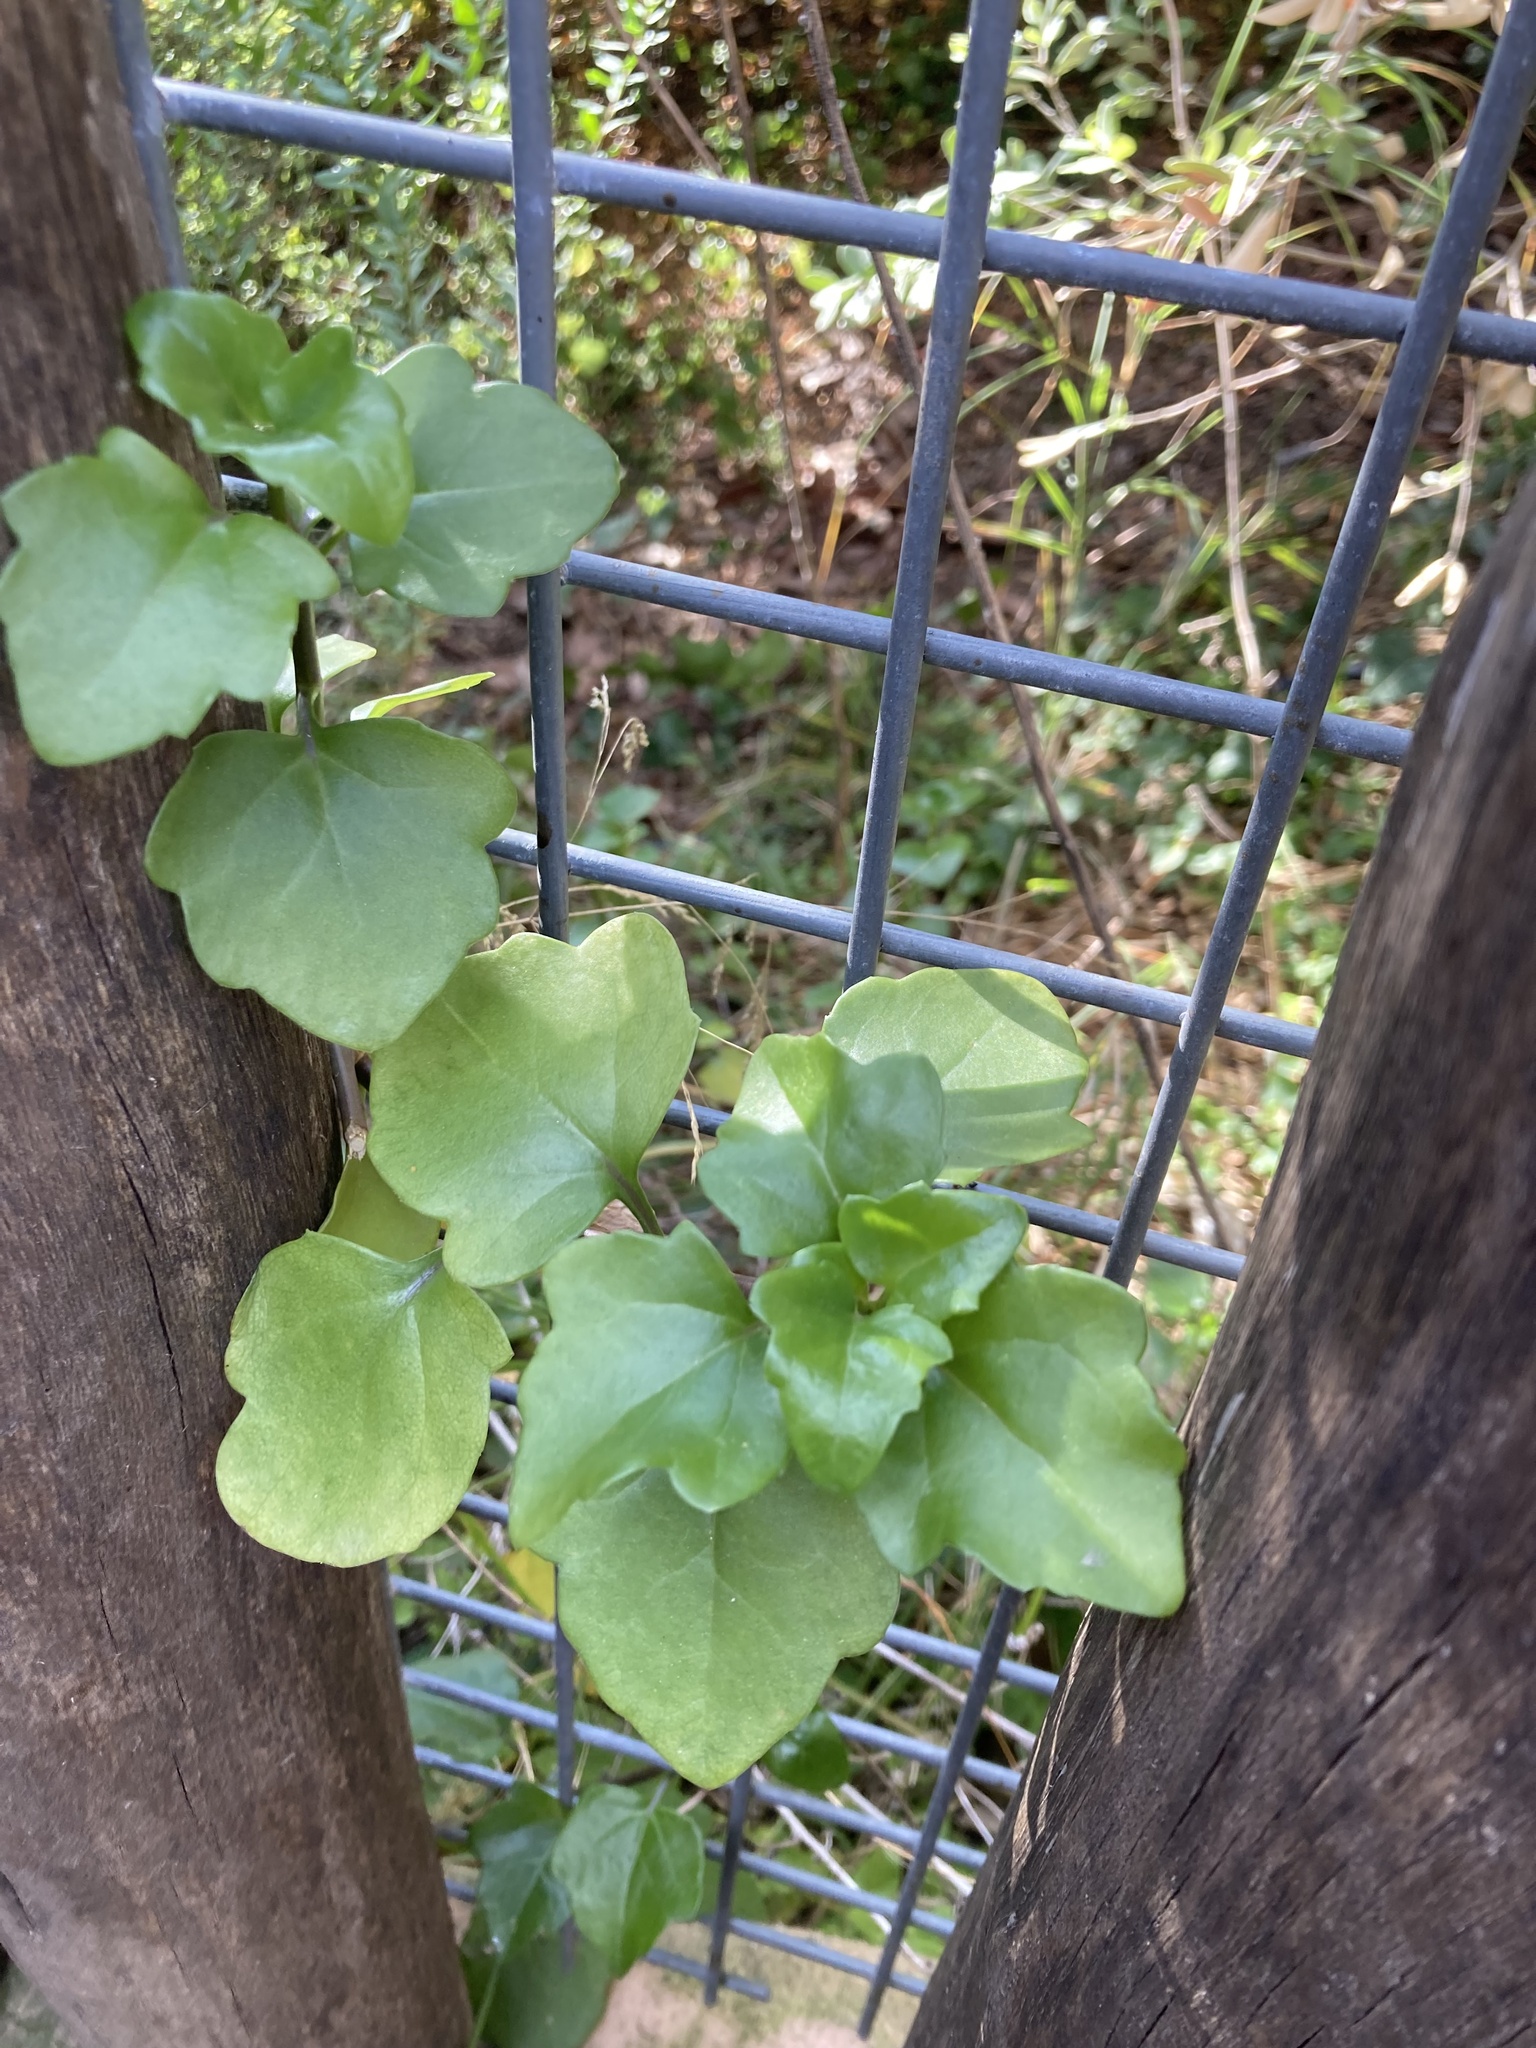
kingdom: Plantae
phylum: Tracheophyta
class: Magnoliopsida
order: Asterales
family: Asteraceae
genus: Senecio
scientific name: Senecio angulatus
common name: Climbing groundsel
